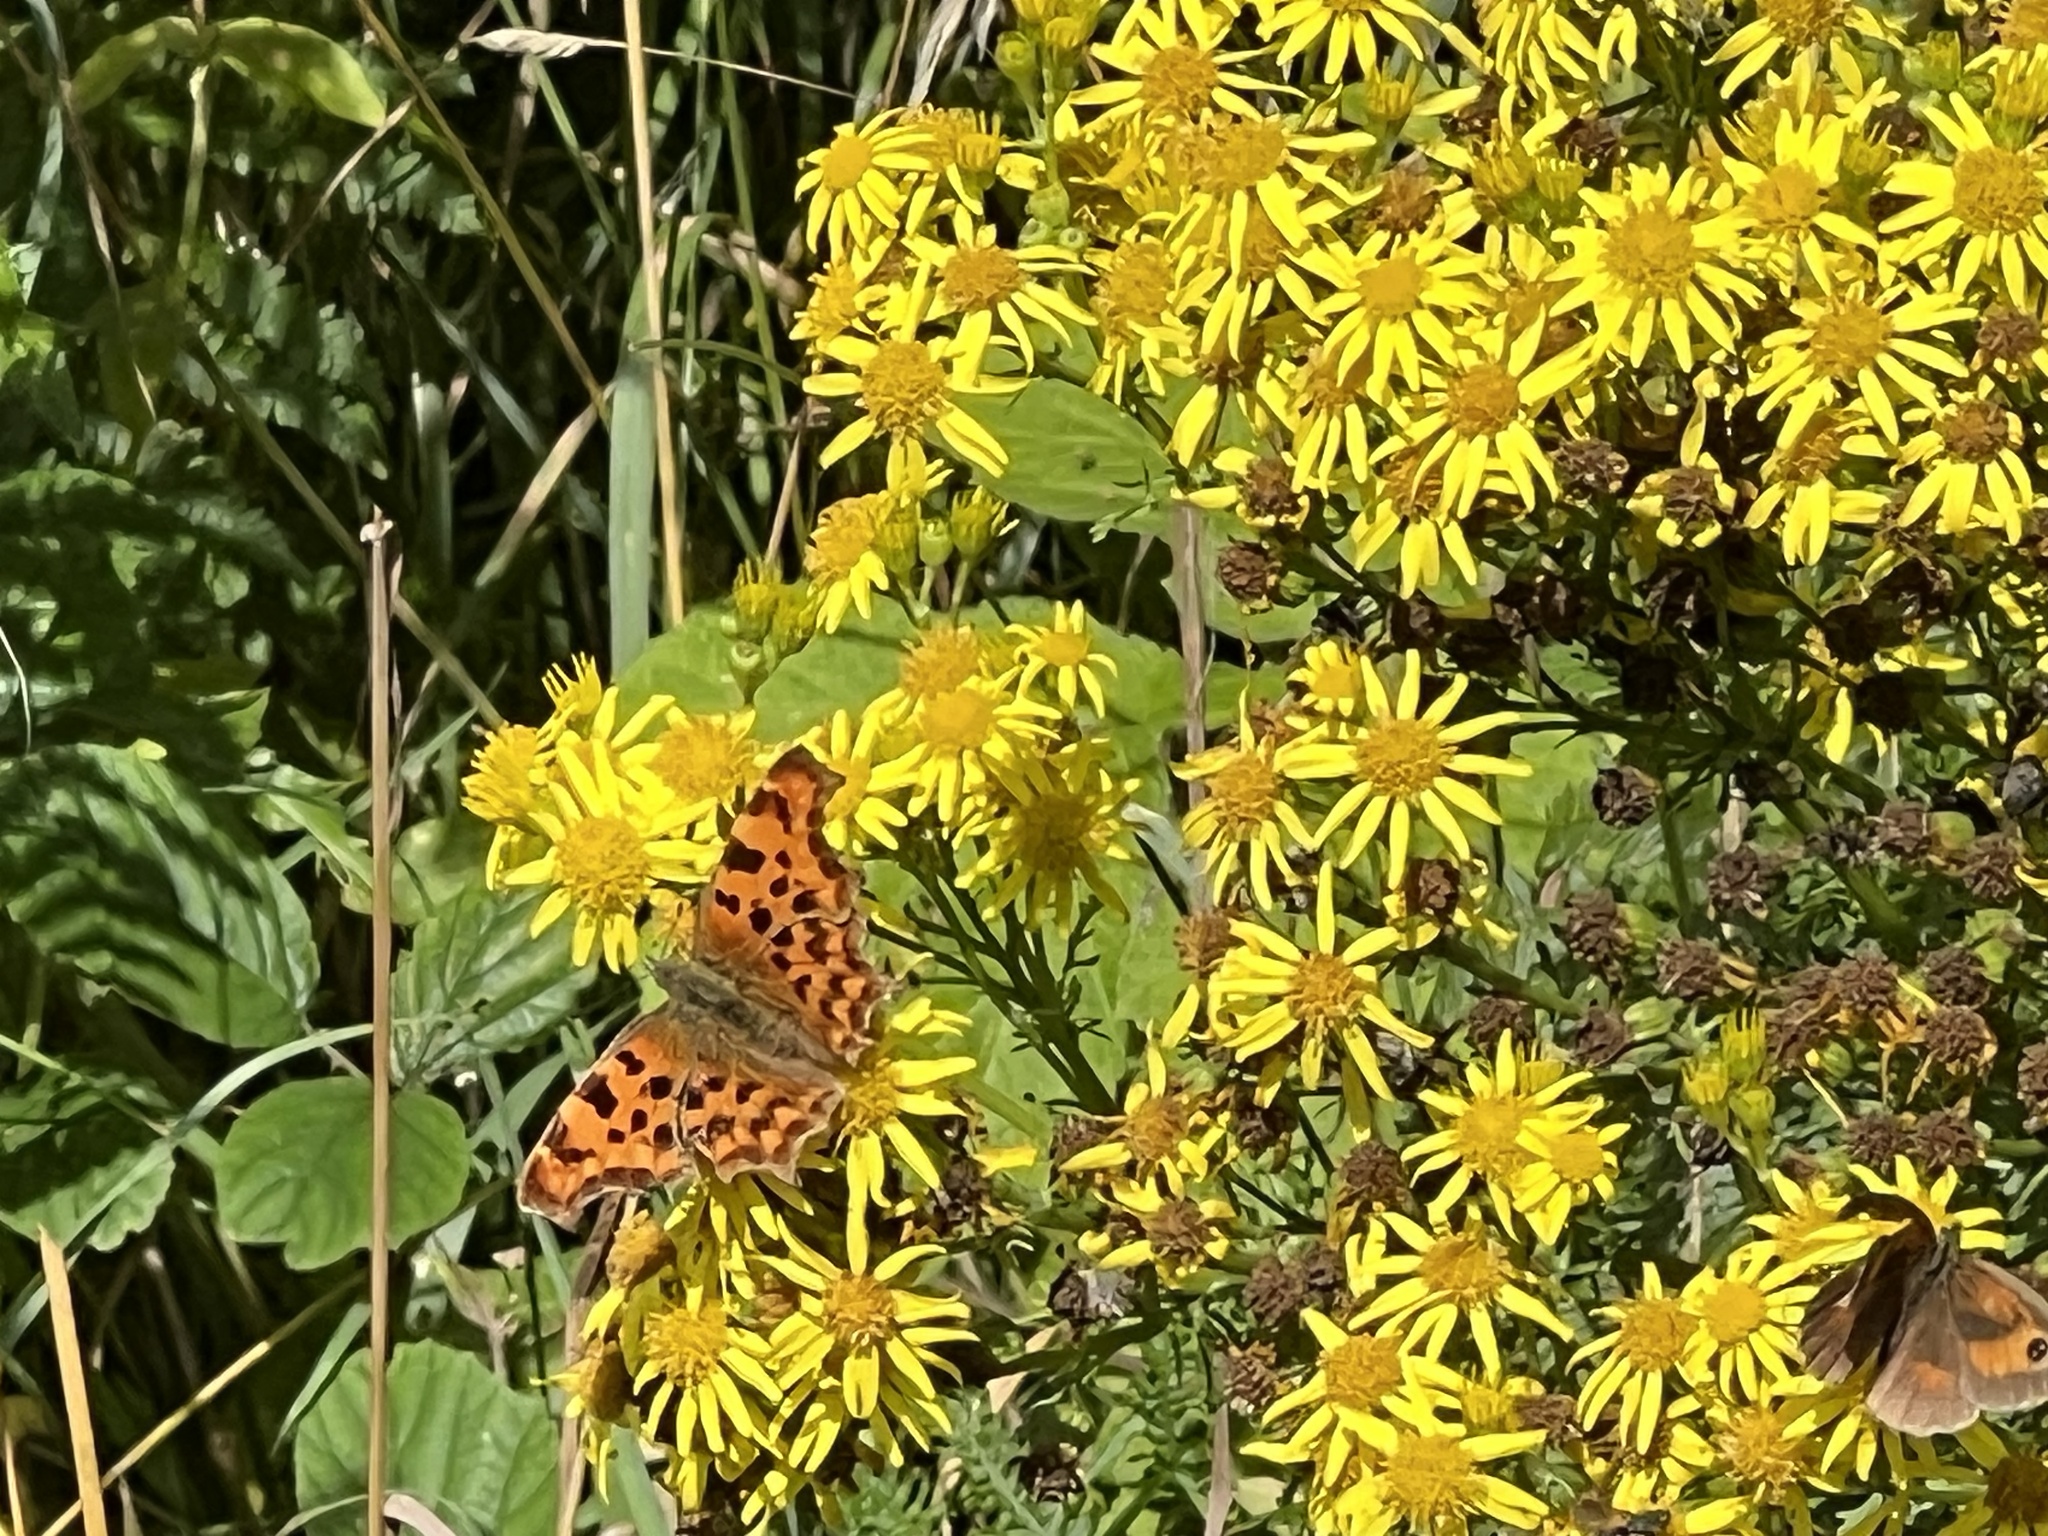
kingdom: Animalia
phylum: Arthropoda
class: Insecta
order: Lepidoptera
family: Nymphalidae
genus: Polygonia
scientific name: Polygonia c-album
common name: Comma
